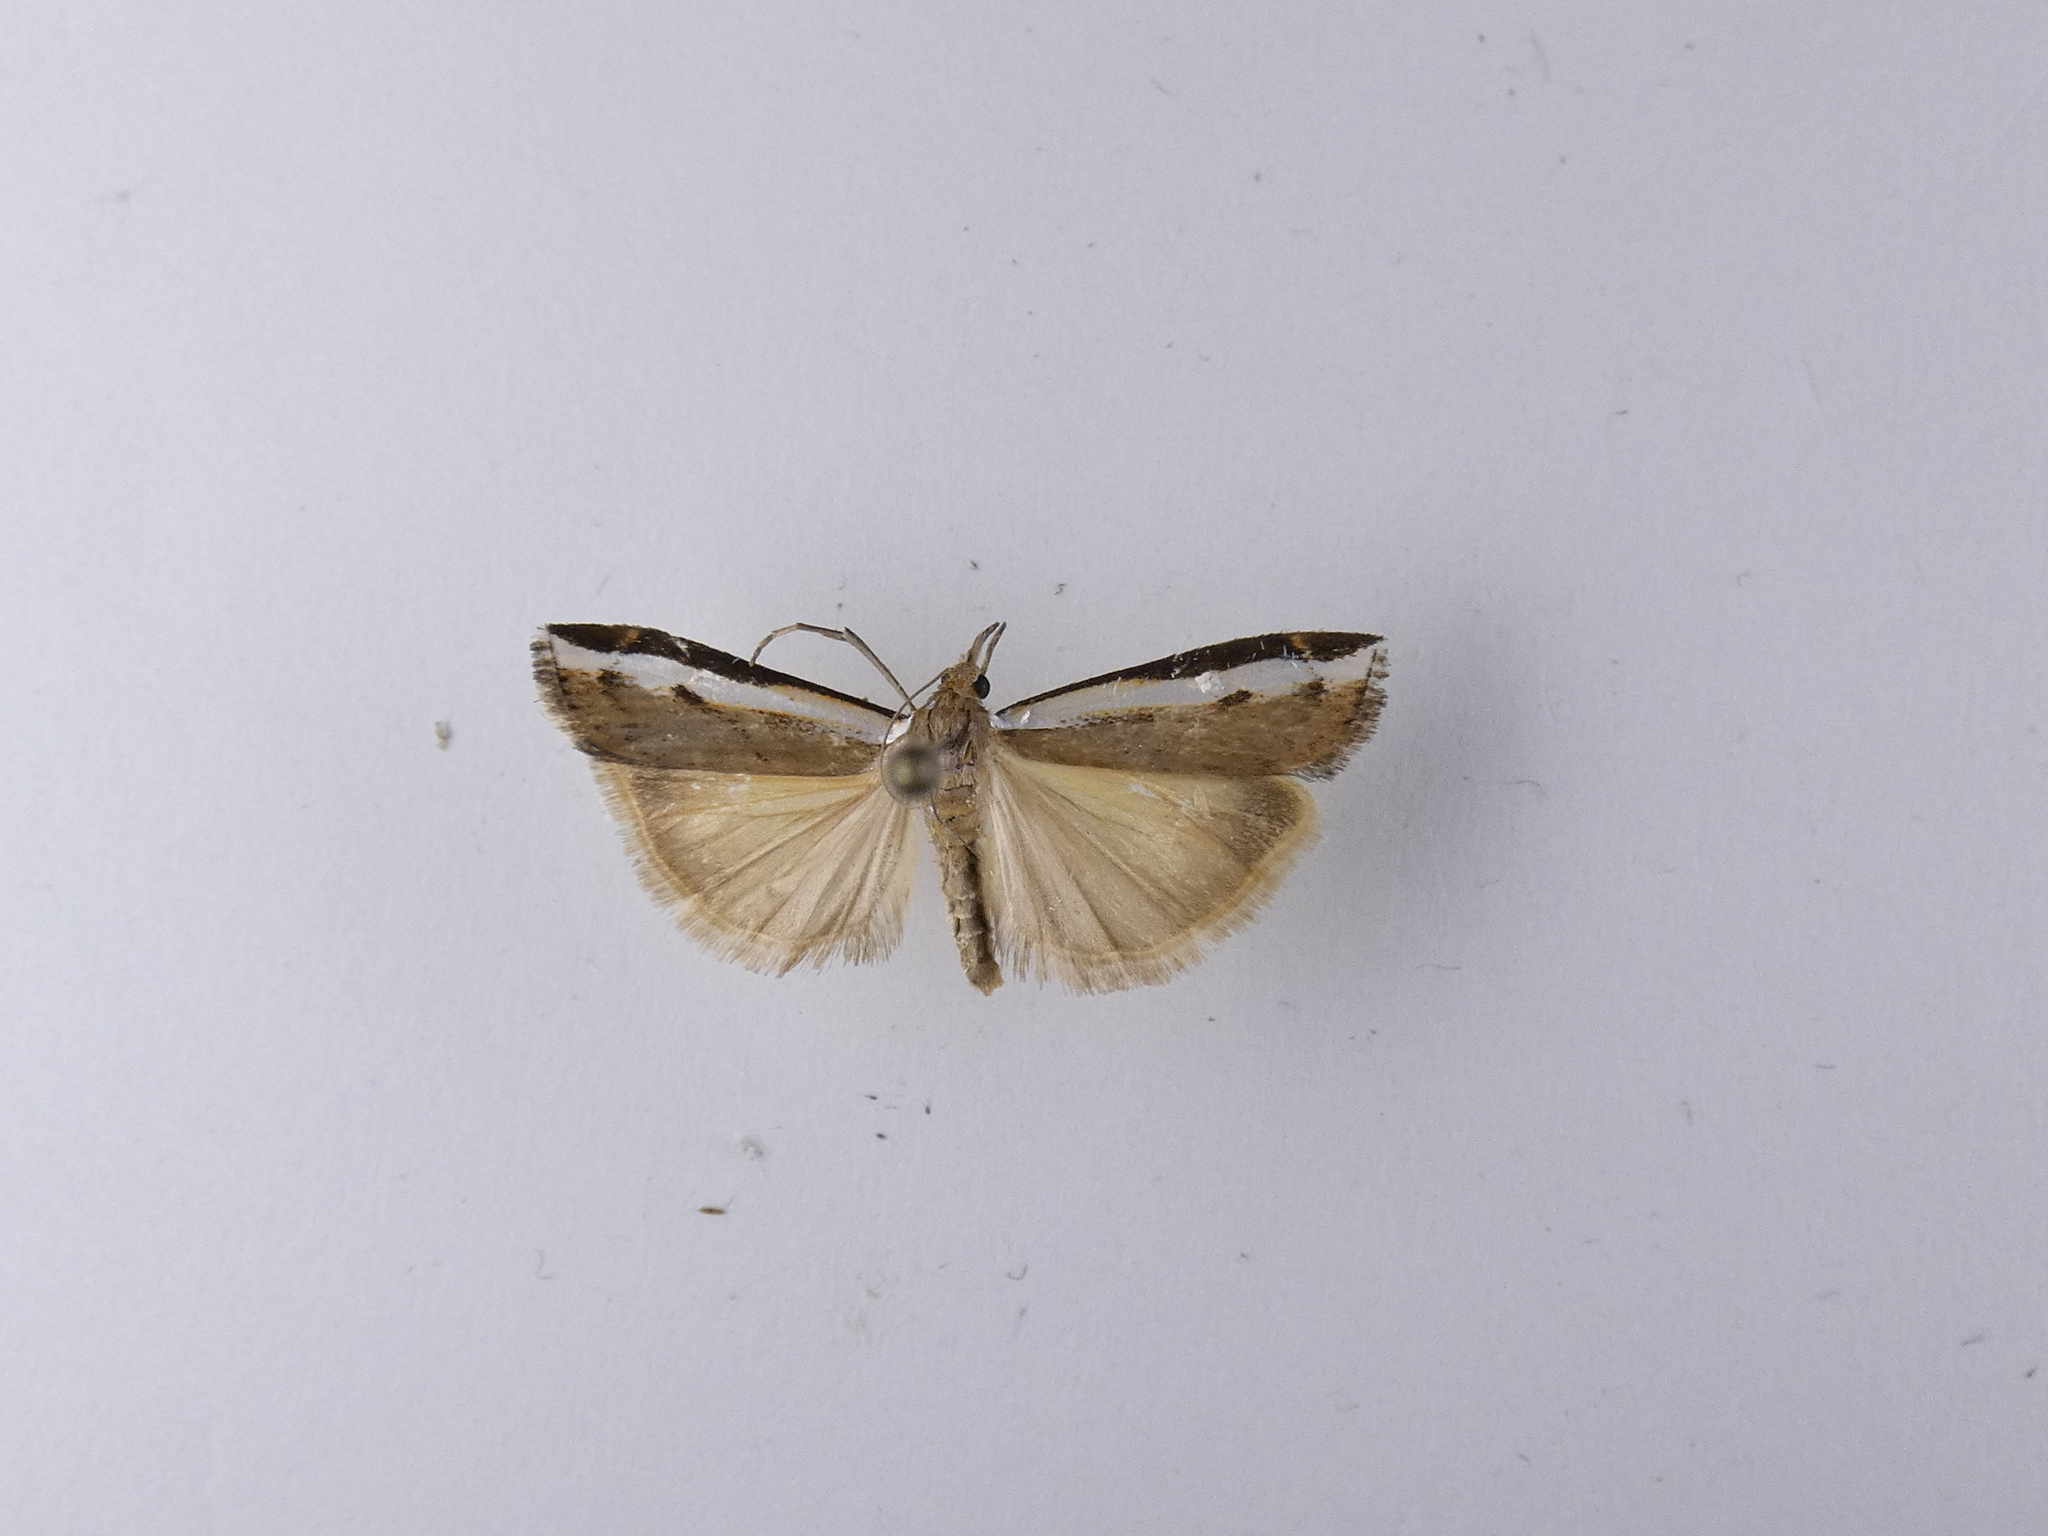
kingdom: Animalia
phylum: Arthropoda
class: Insecta
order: Lepidoptera
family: Crambidae
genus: Orocrambus
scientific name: Orocrambus flexuosellus
